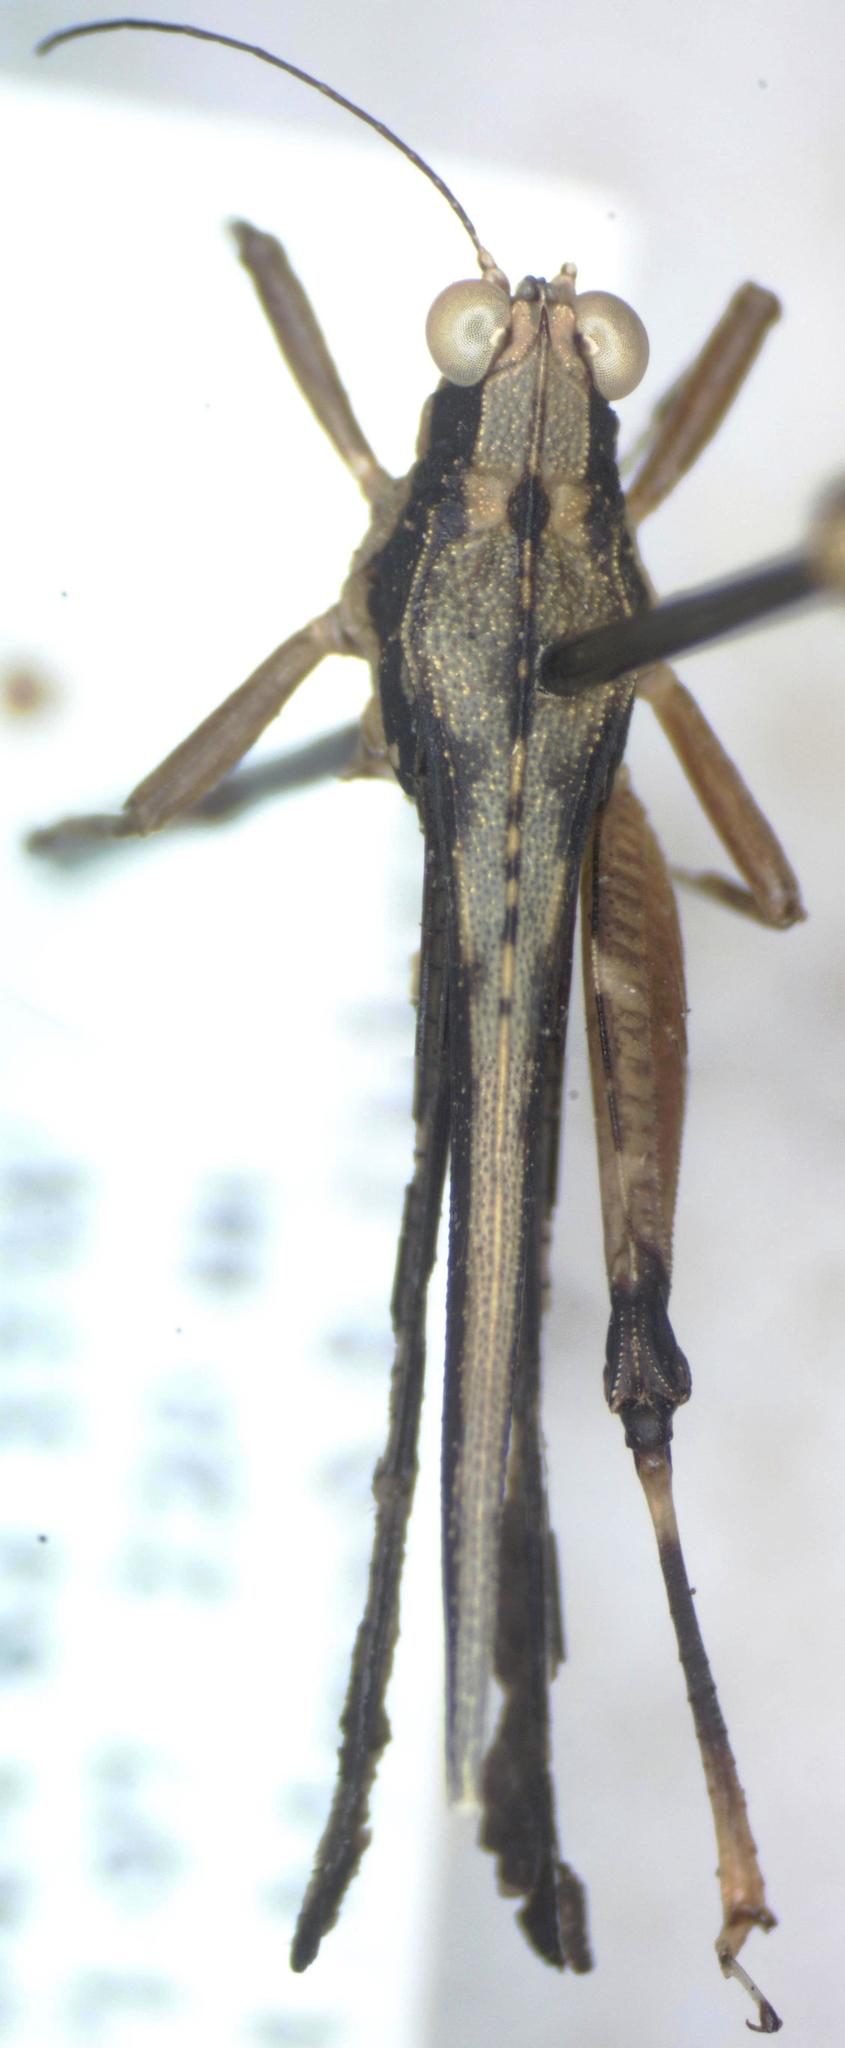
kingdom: Animalia
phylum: Arthropoda
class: Insecta
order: Orthoptera
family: Tetrigidae
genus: Scaria
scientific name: Scaria fasciata
